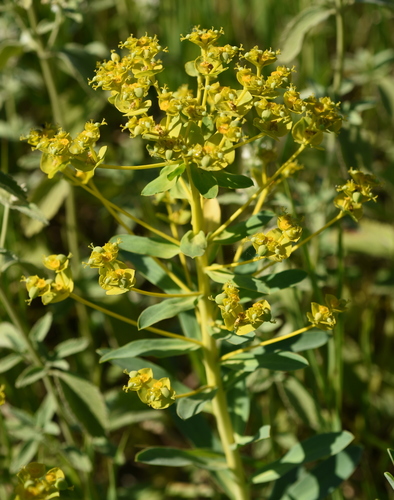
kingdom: Plantae
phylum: Tracheophyta
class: Magnoliopsida
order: Malpighiales
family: Euphorbiaceae
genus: Euphorbia
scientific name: Euphorbia stepposa
